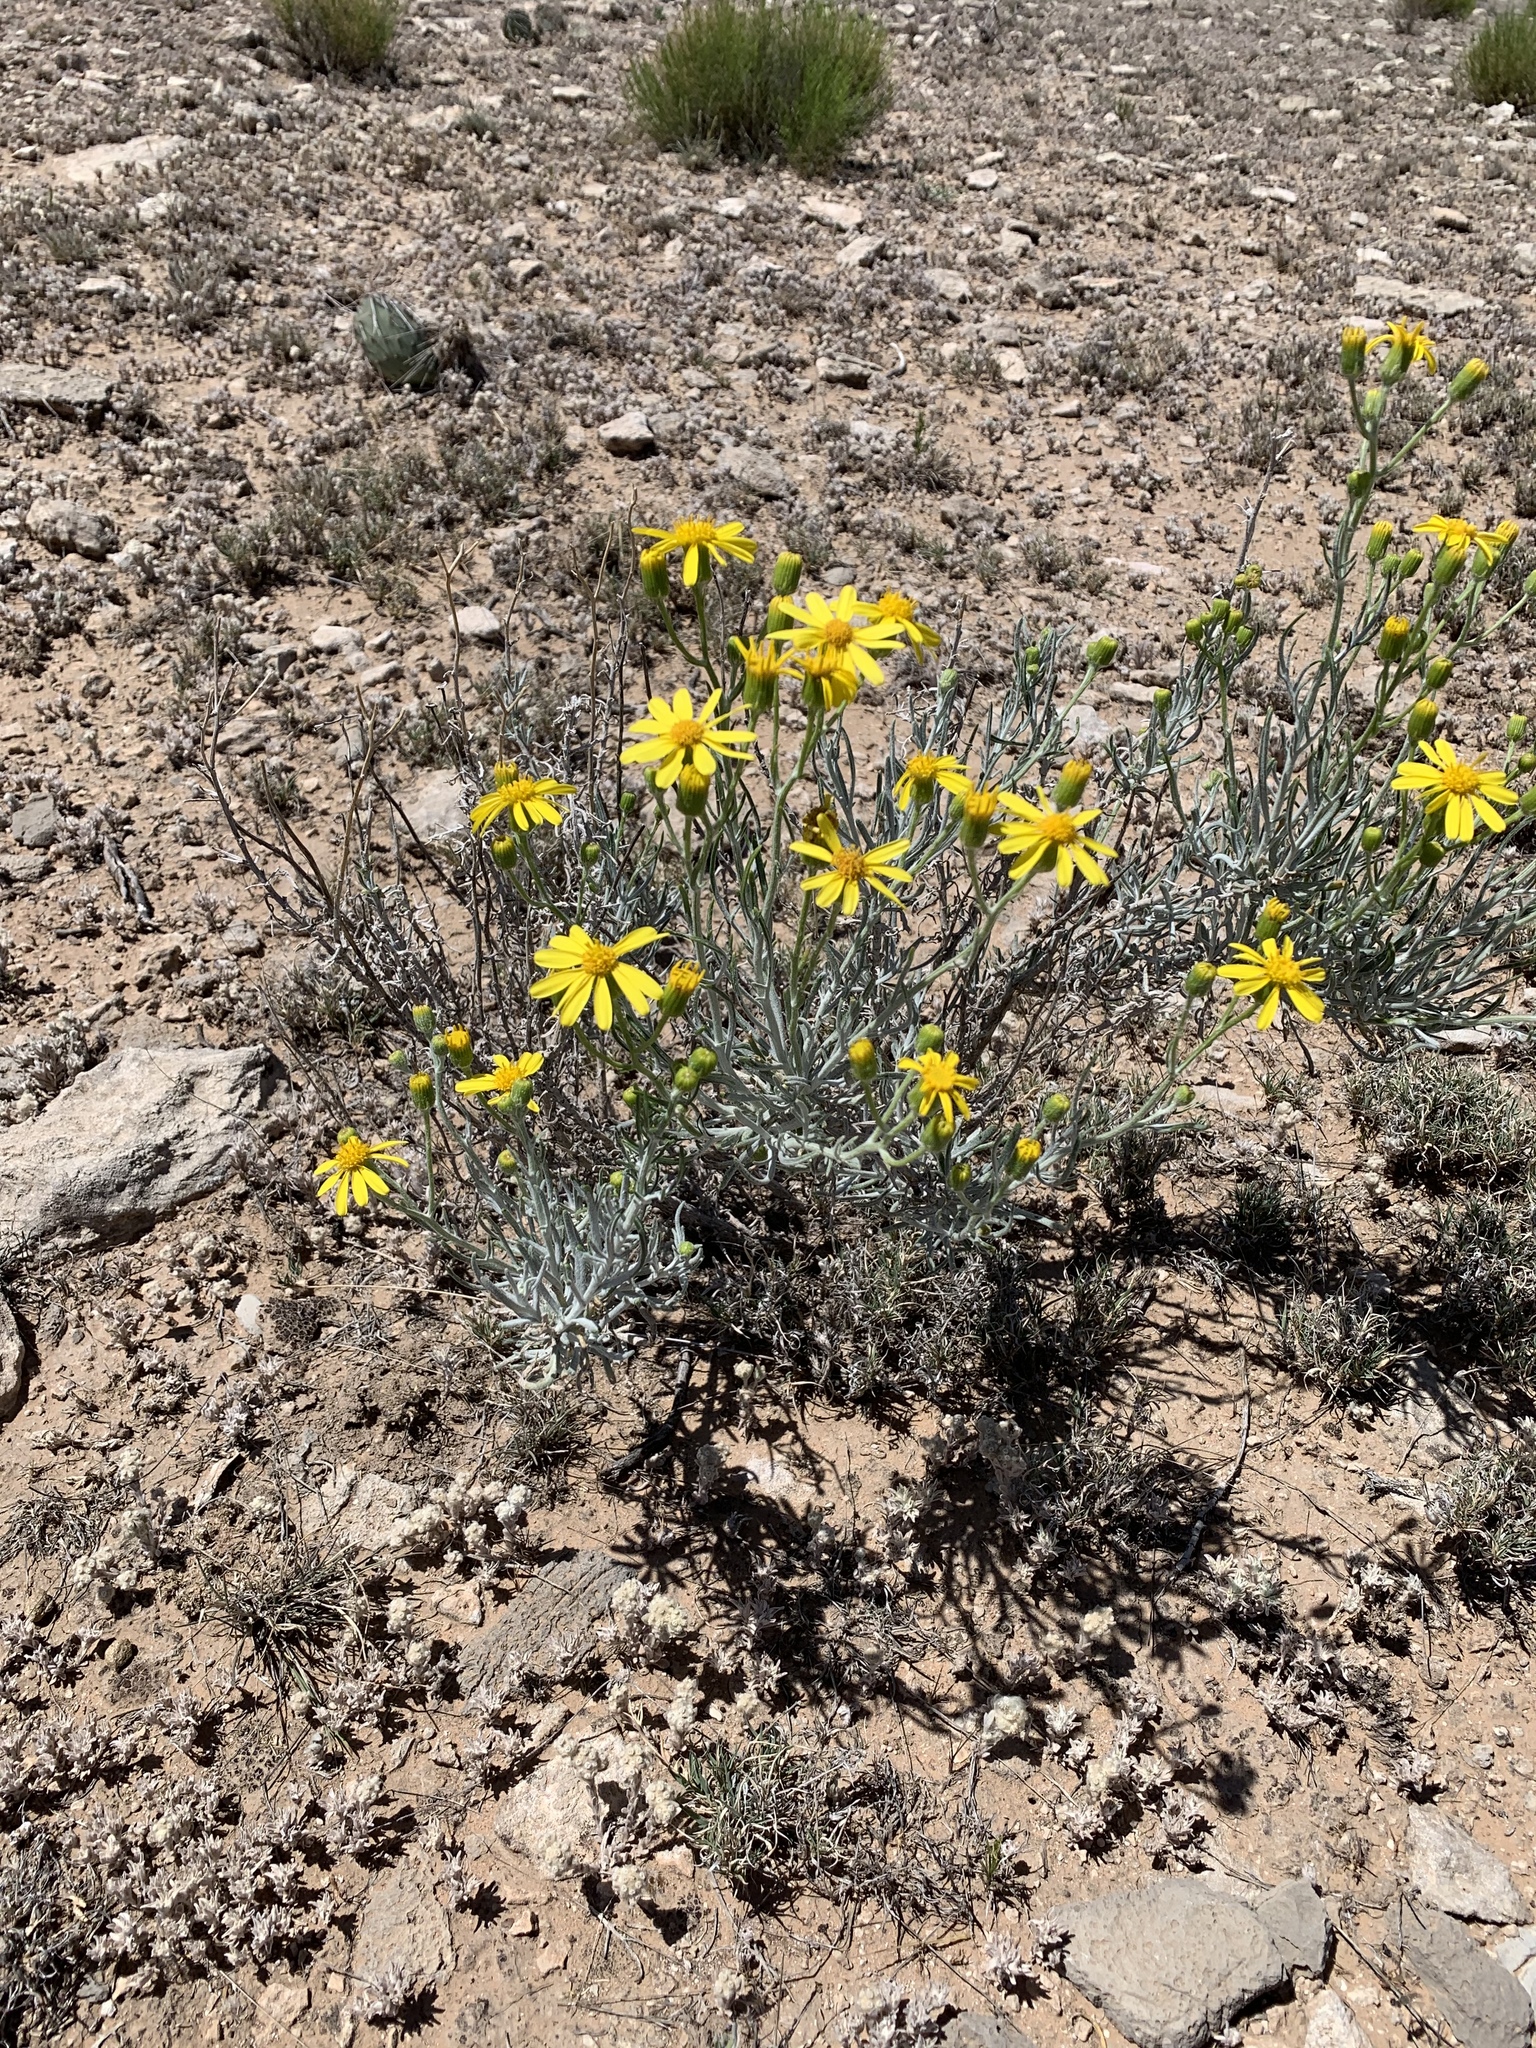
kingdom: Plantae
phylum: Tracheophyta
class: Magnoliopsida
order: Asterales
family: Asteraceae
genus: Senecio
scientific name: Senecio flaccidus
